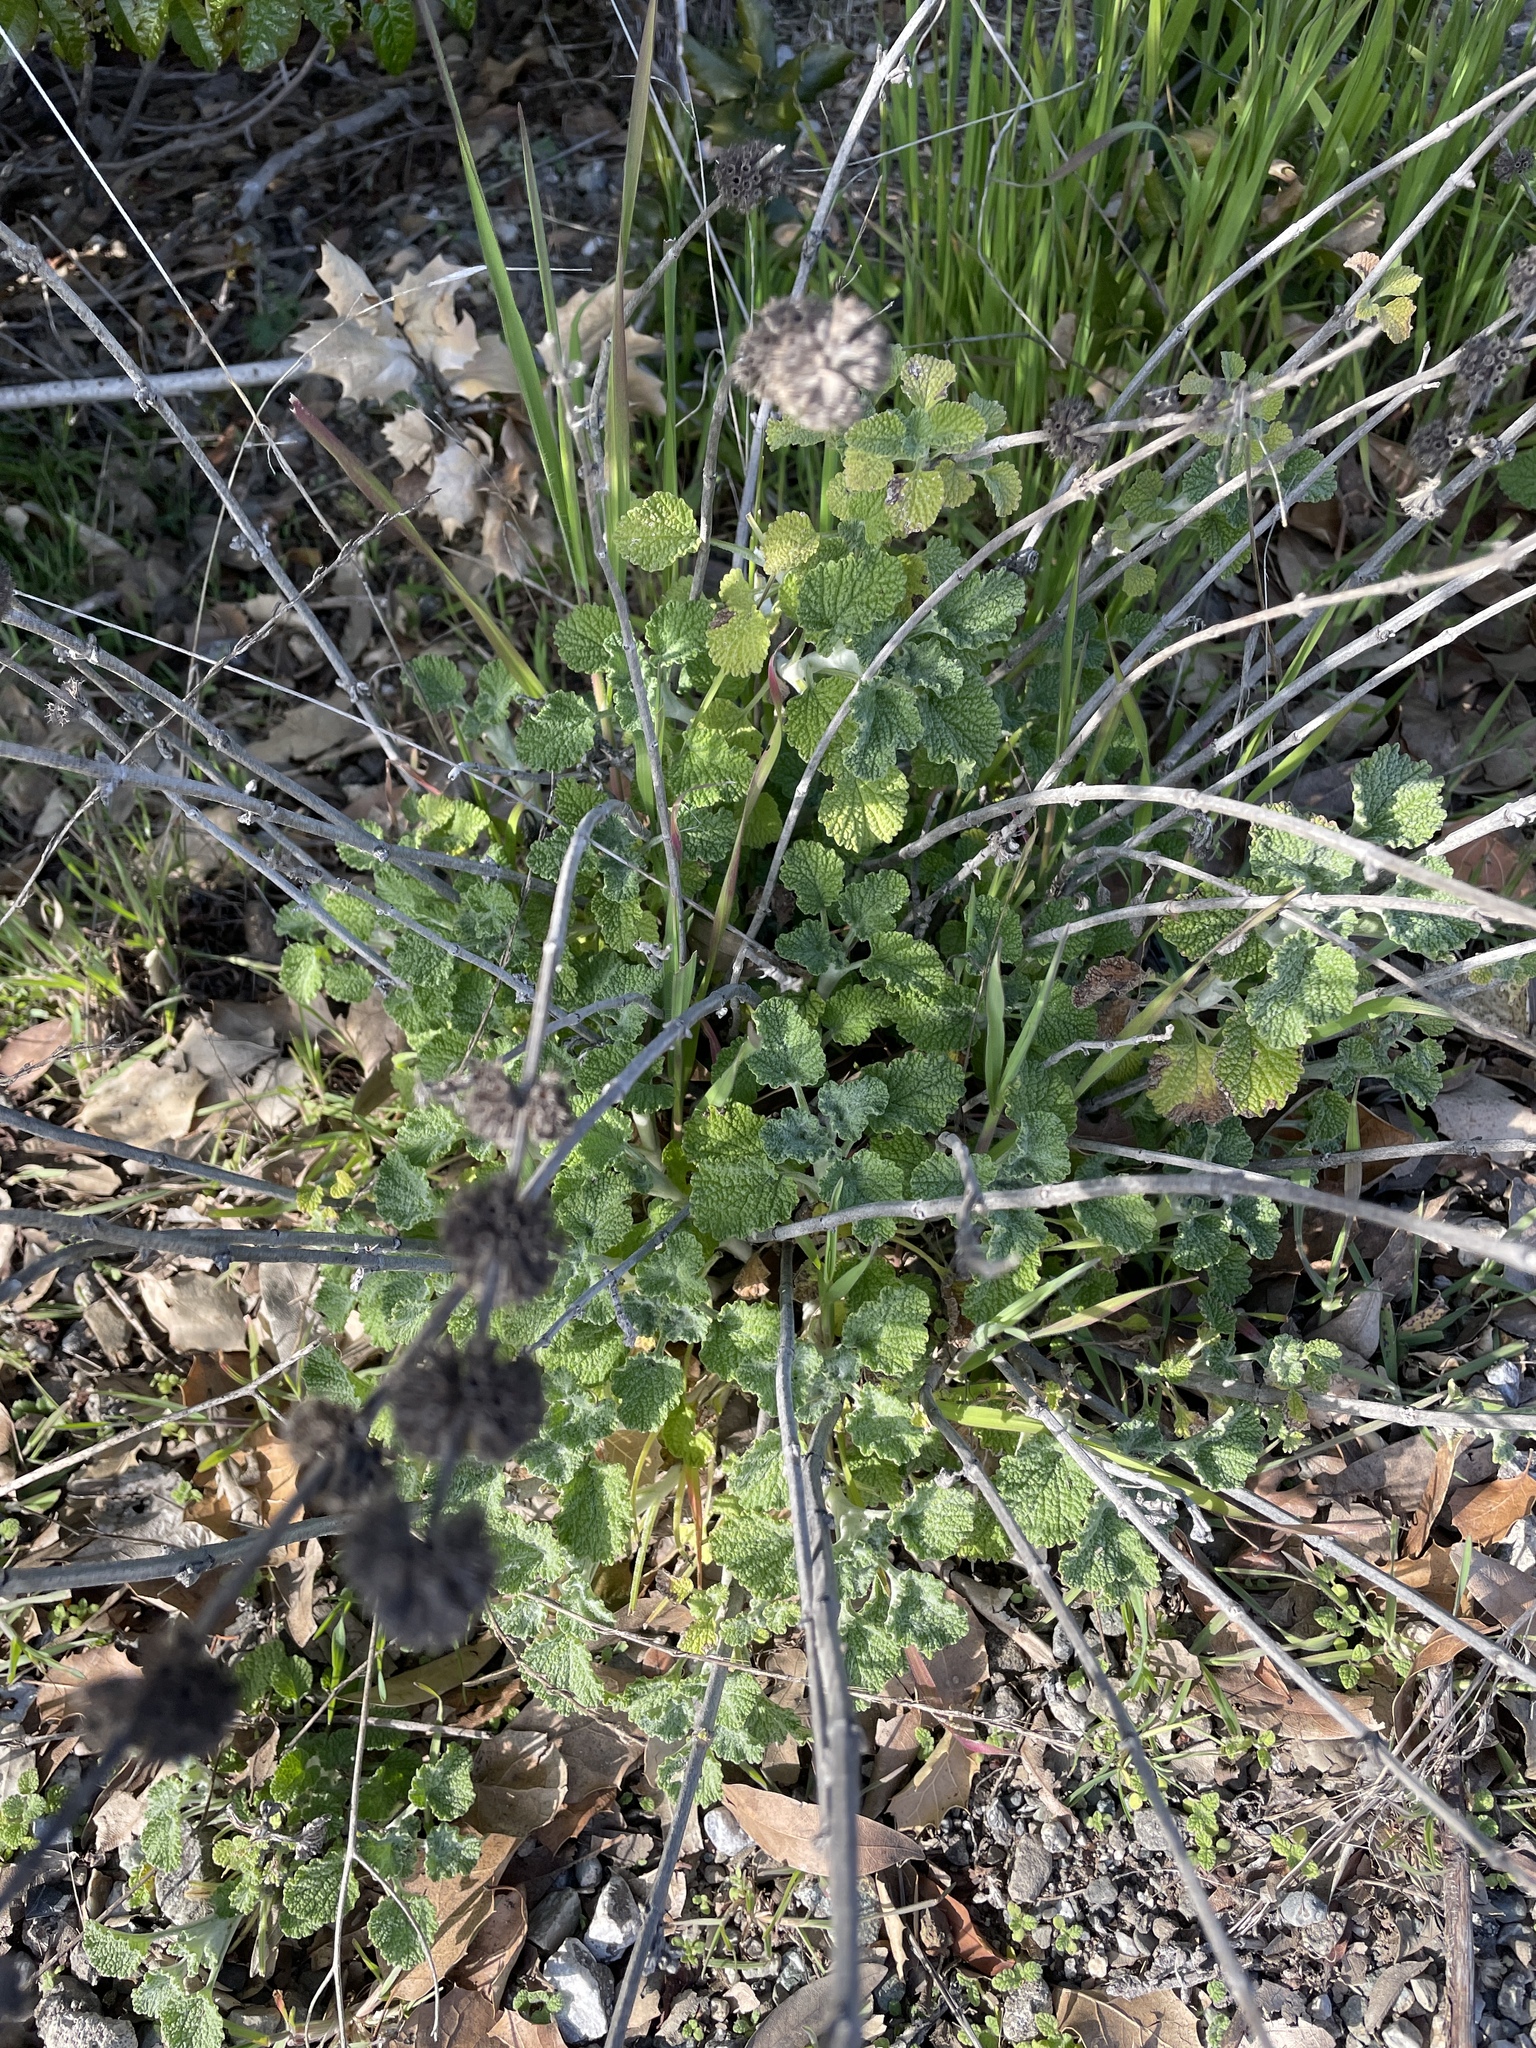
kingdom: Plantae
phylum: Tracheophyta
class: Magnoliopsida
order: Lamiales
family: Lamiaceae
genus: Marrubium
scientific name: Marrubium vulgare
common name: Horehound
